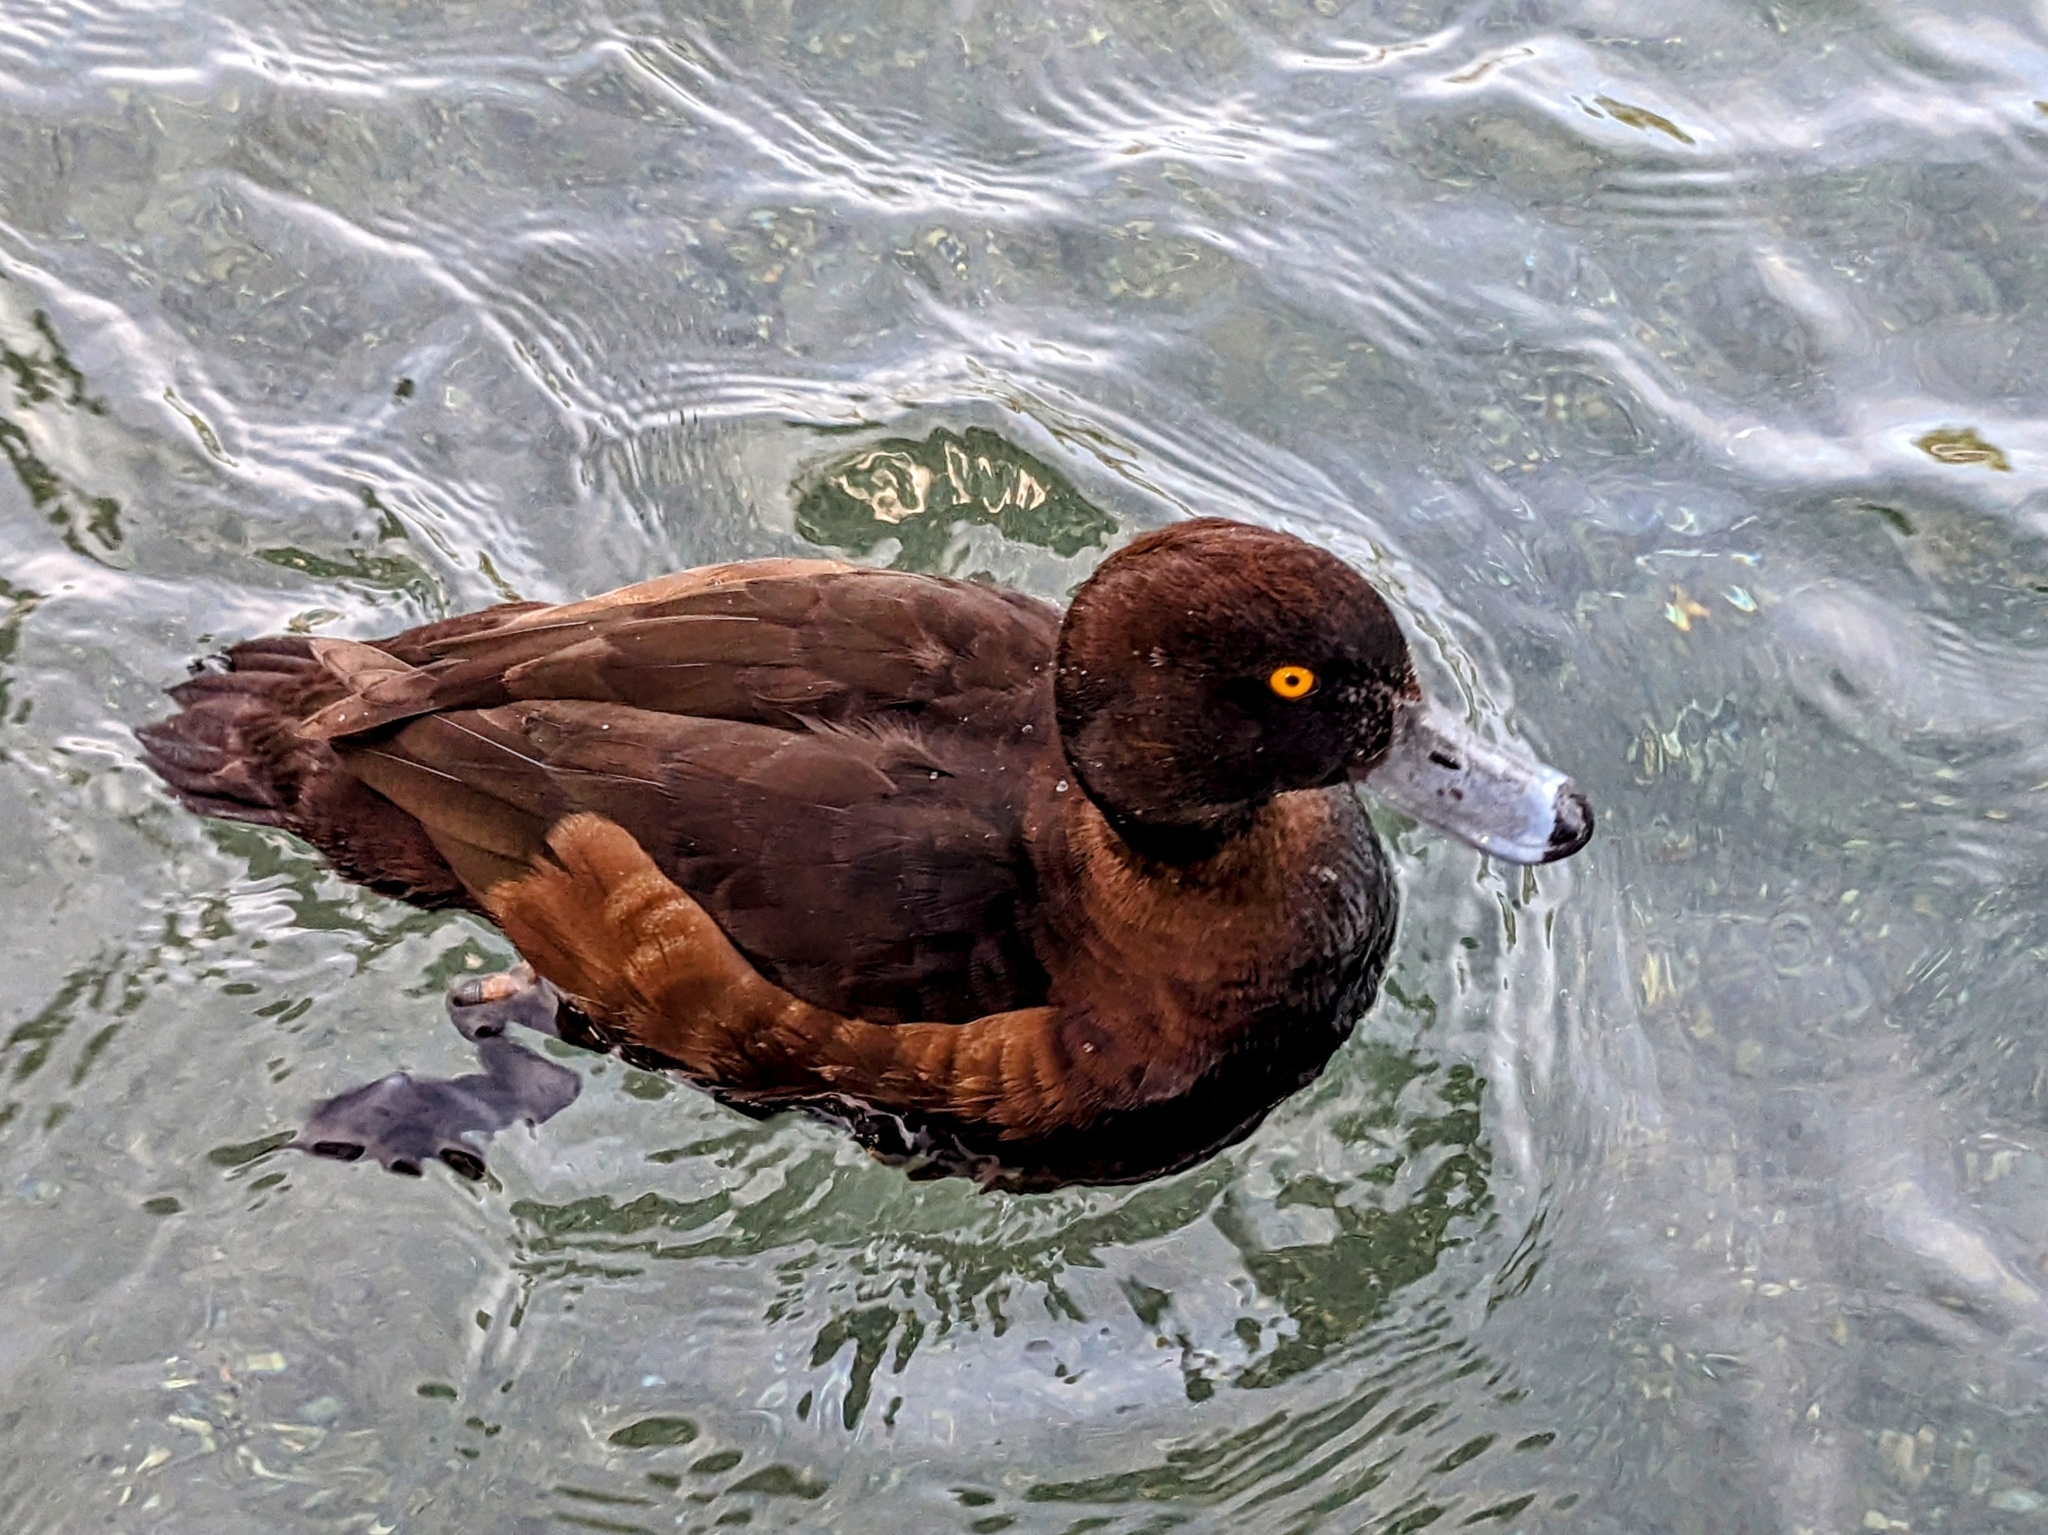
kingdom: Animalia
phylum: Chordata
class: Aves
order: Anseriformes
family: Anatidae
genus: Aythya
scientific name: Aythya fuligula
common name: Tufted duck
